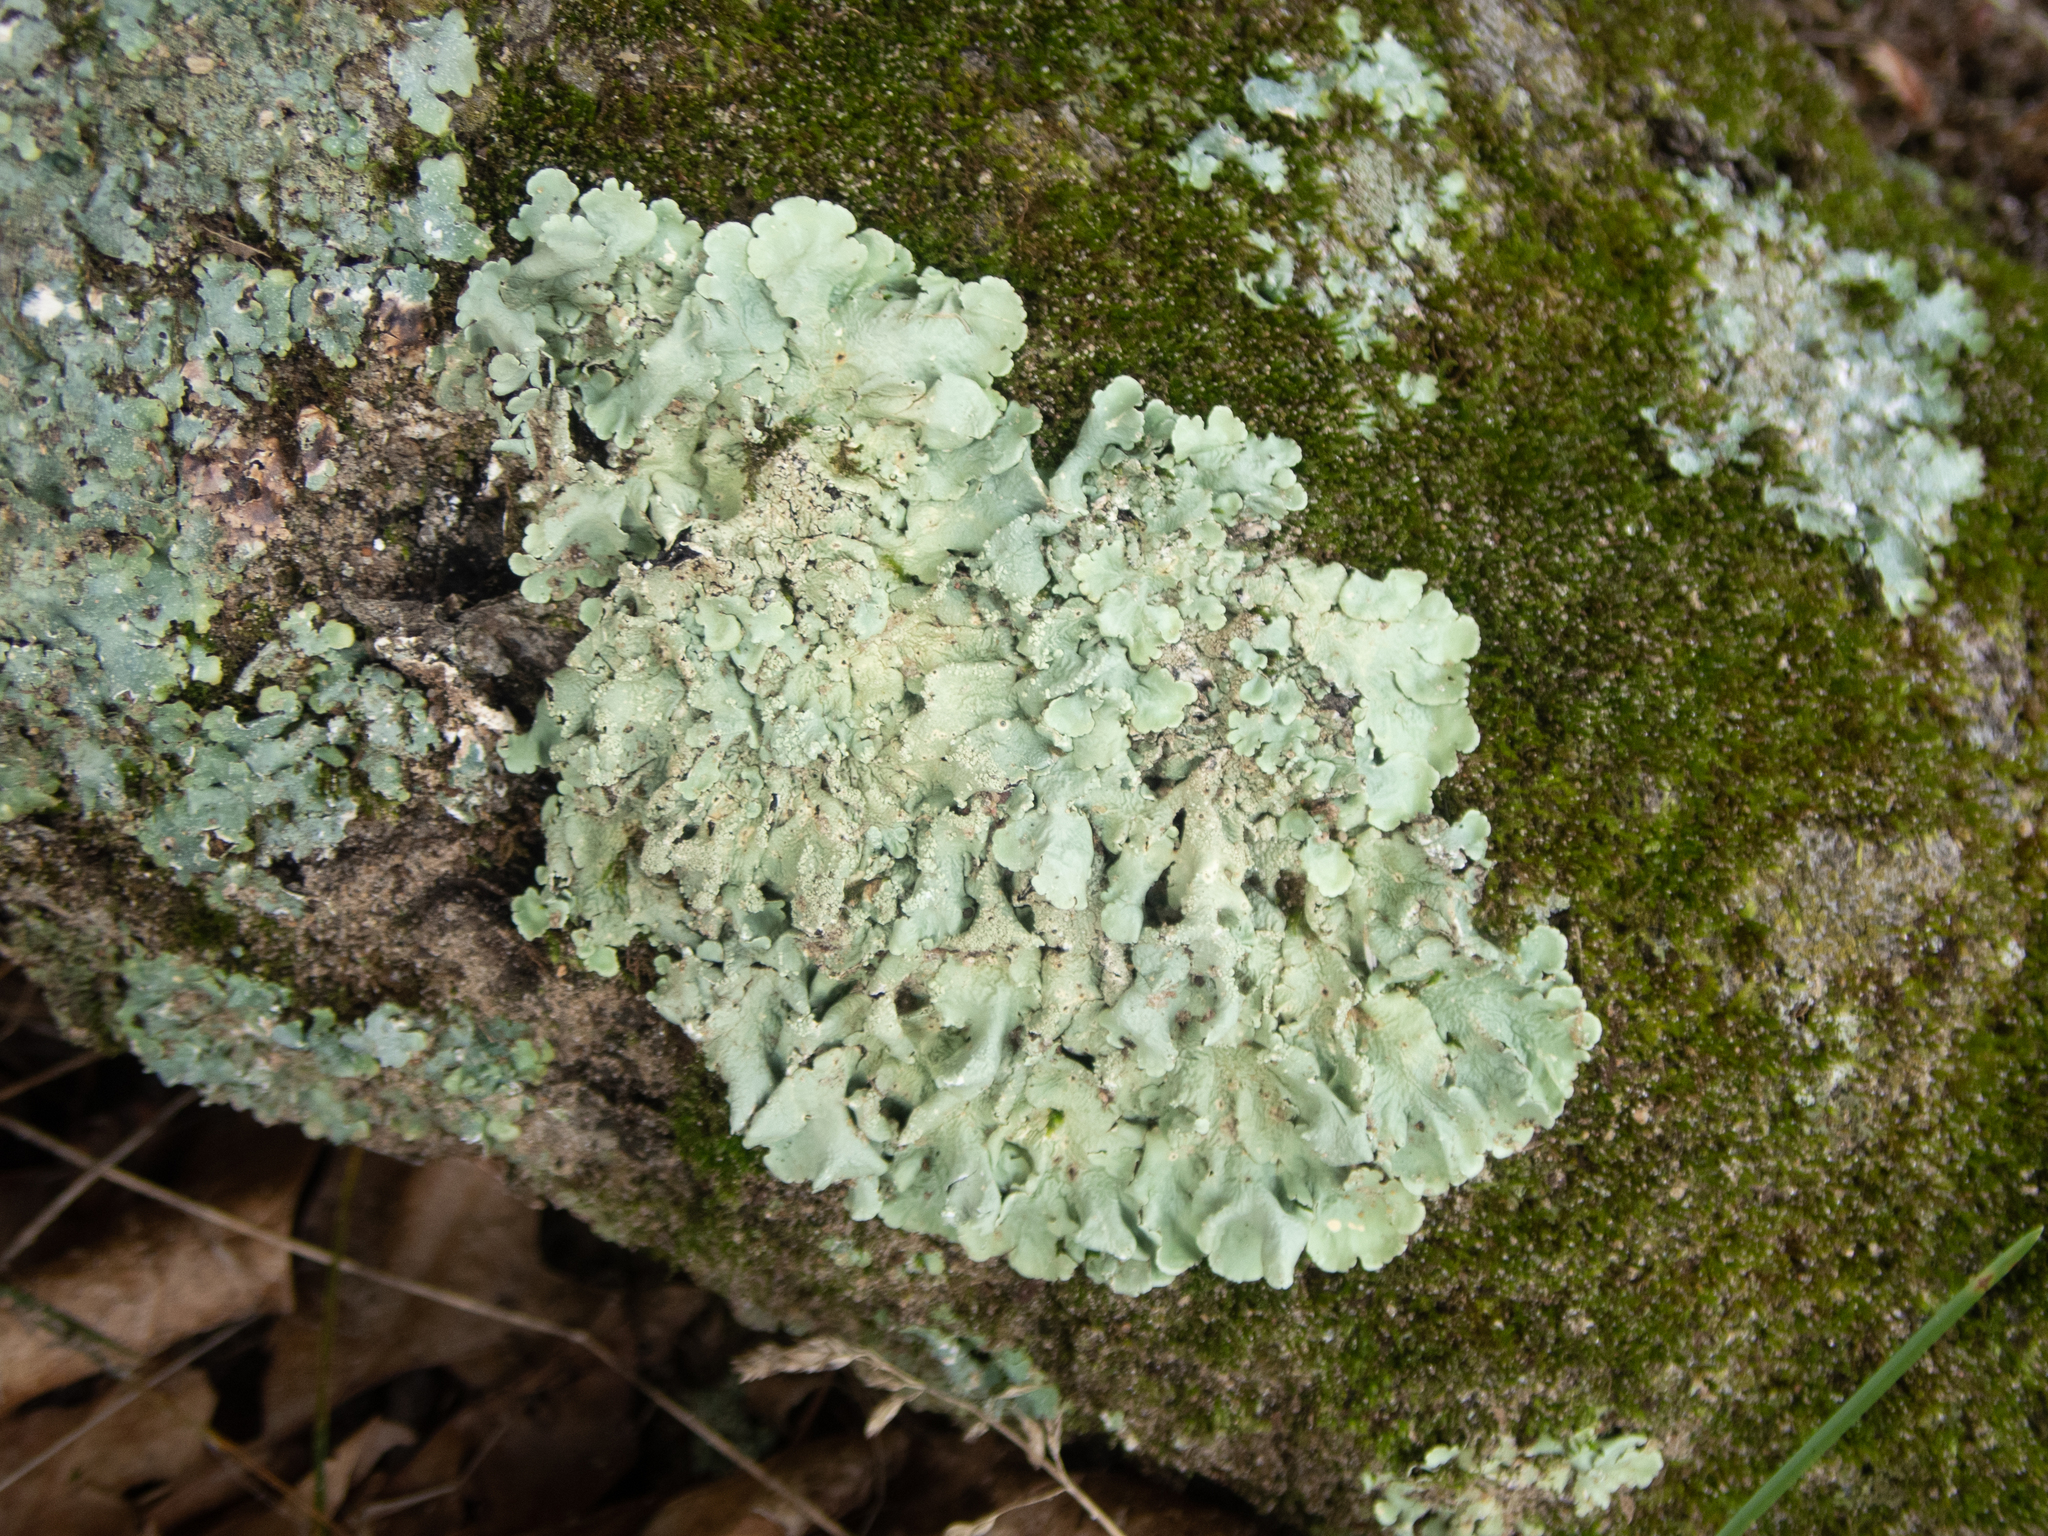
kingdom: Fungi
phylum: Ascomycota
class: Lecanoromycetes
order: Lecanorales
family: Parmeliaceae
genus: Flavoparmelia
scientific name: Flavoparmelia caperata
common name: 40-mile per hour lichen
